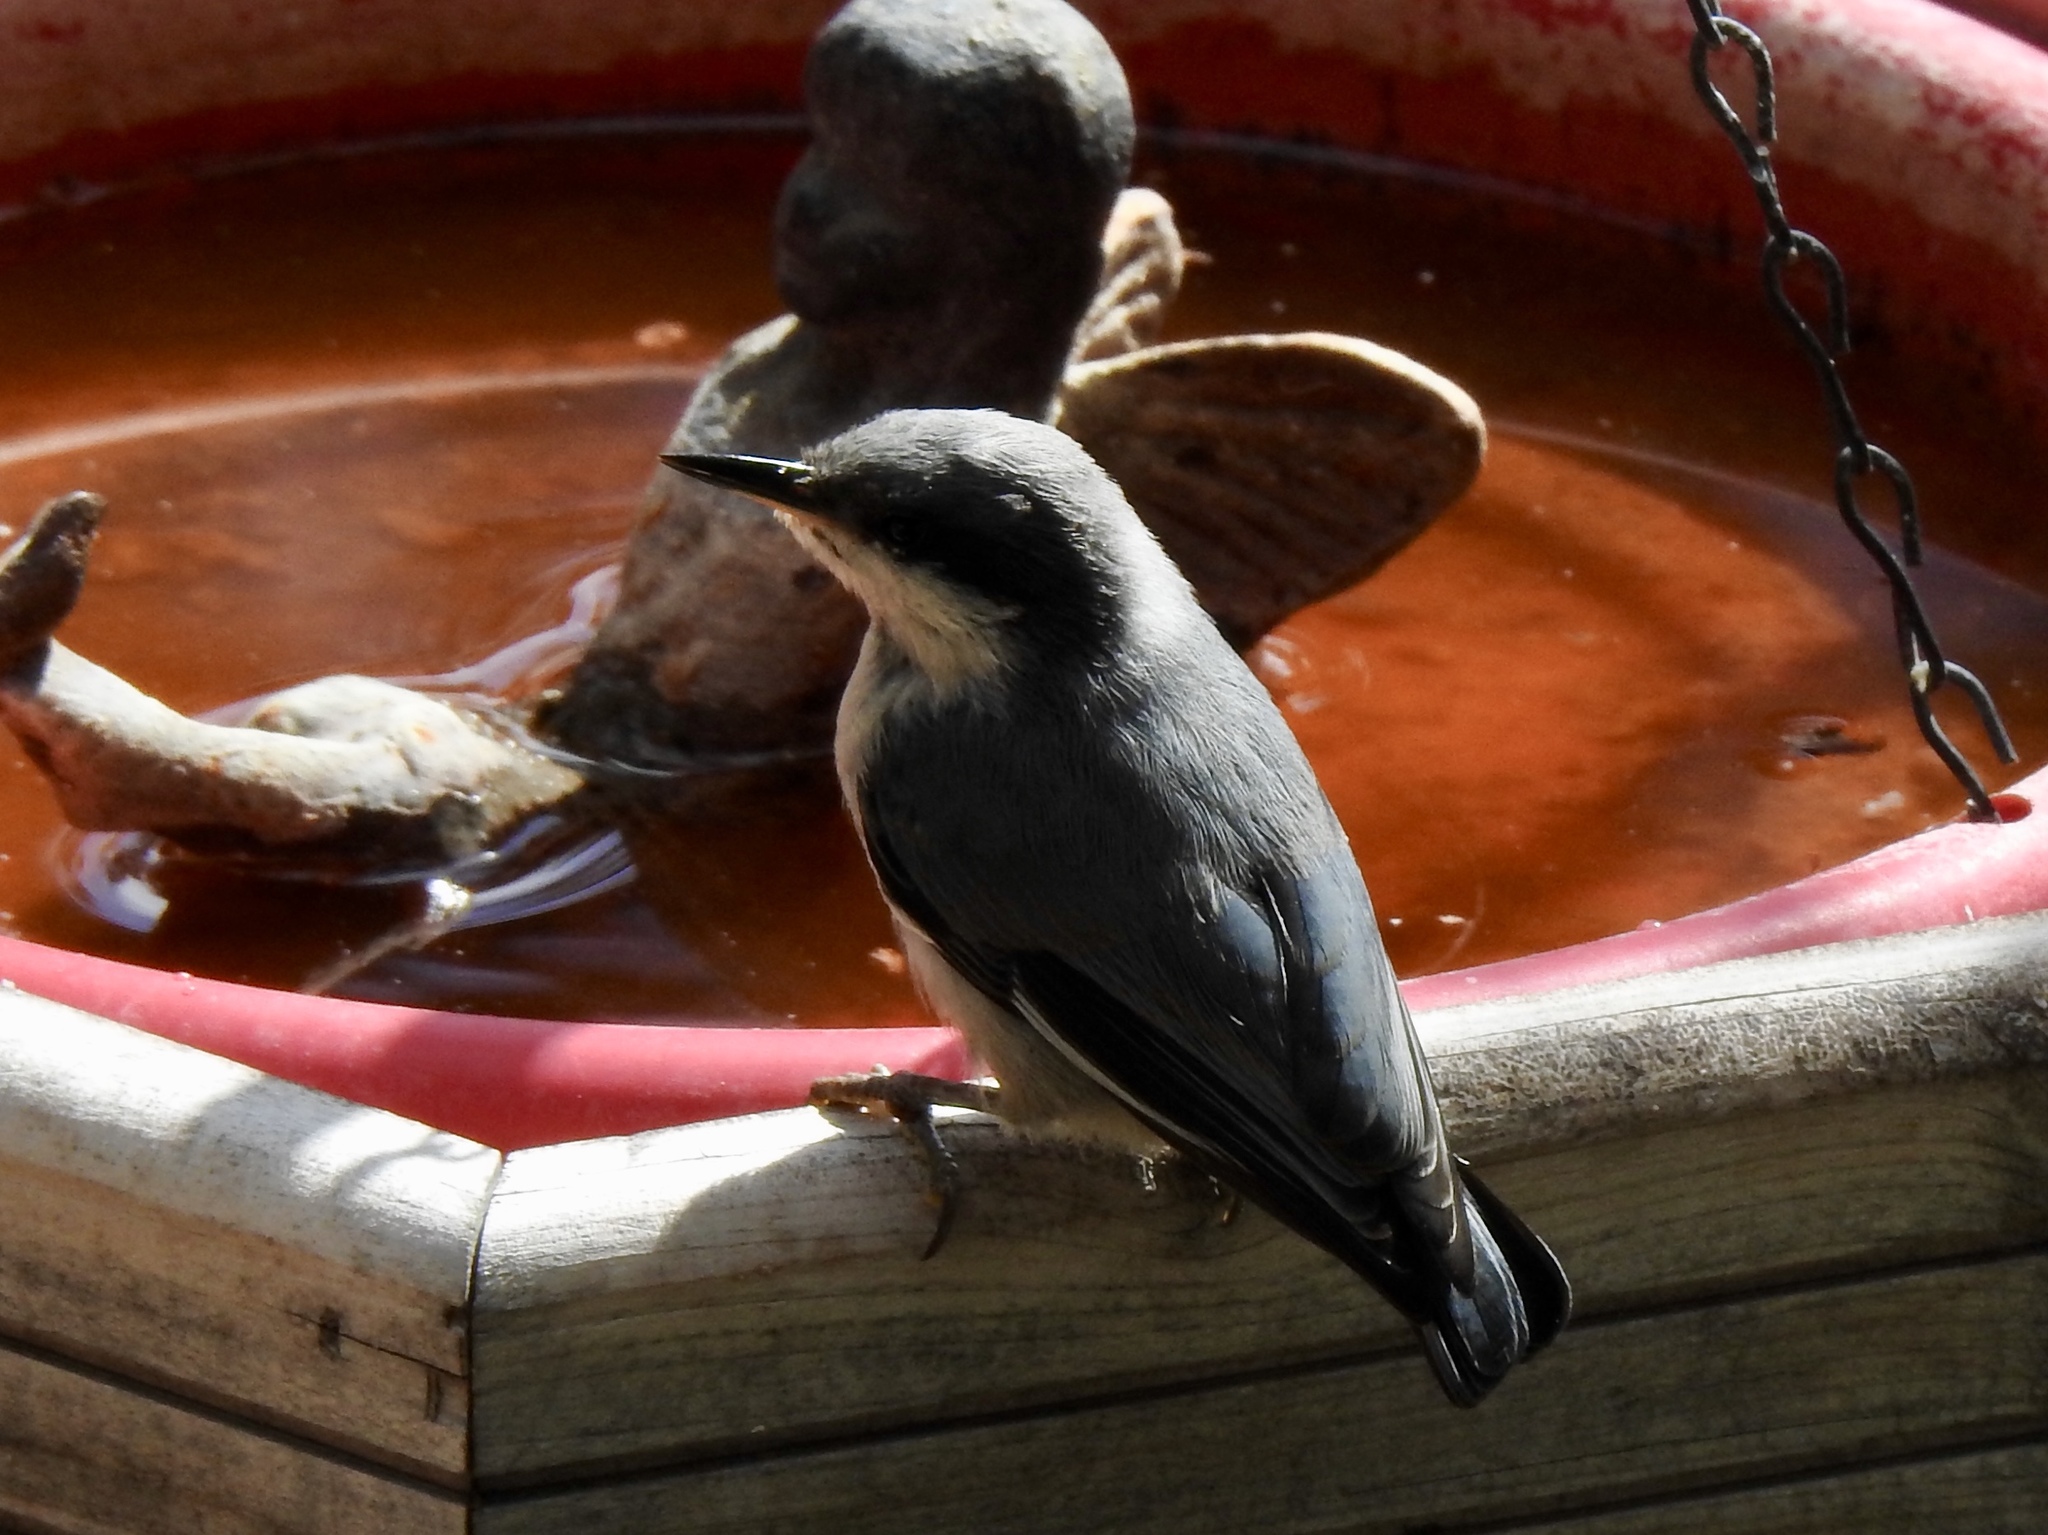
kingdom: Animalia
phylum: Chordata
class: Aves
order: Passeriformes
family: Sittidae
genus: Sitta
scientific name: Sitta pygmaea
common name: Pygmy nuthatch
